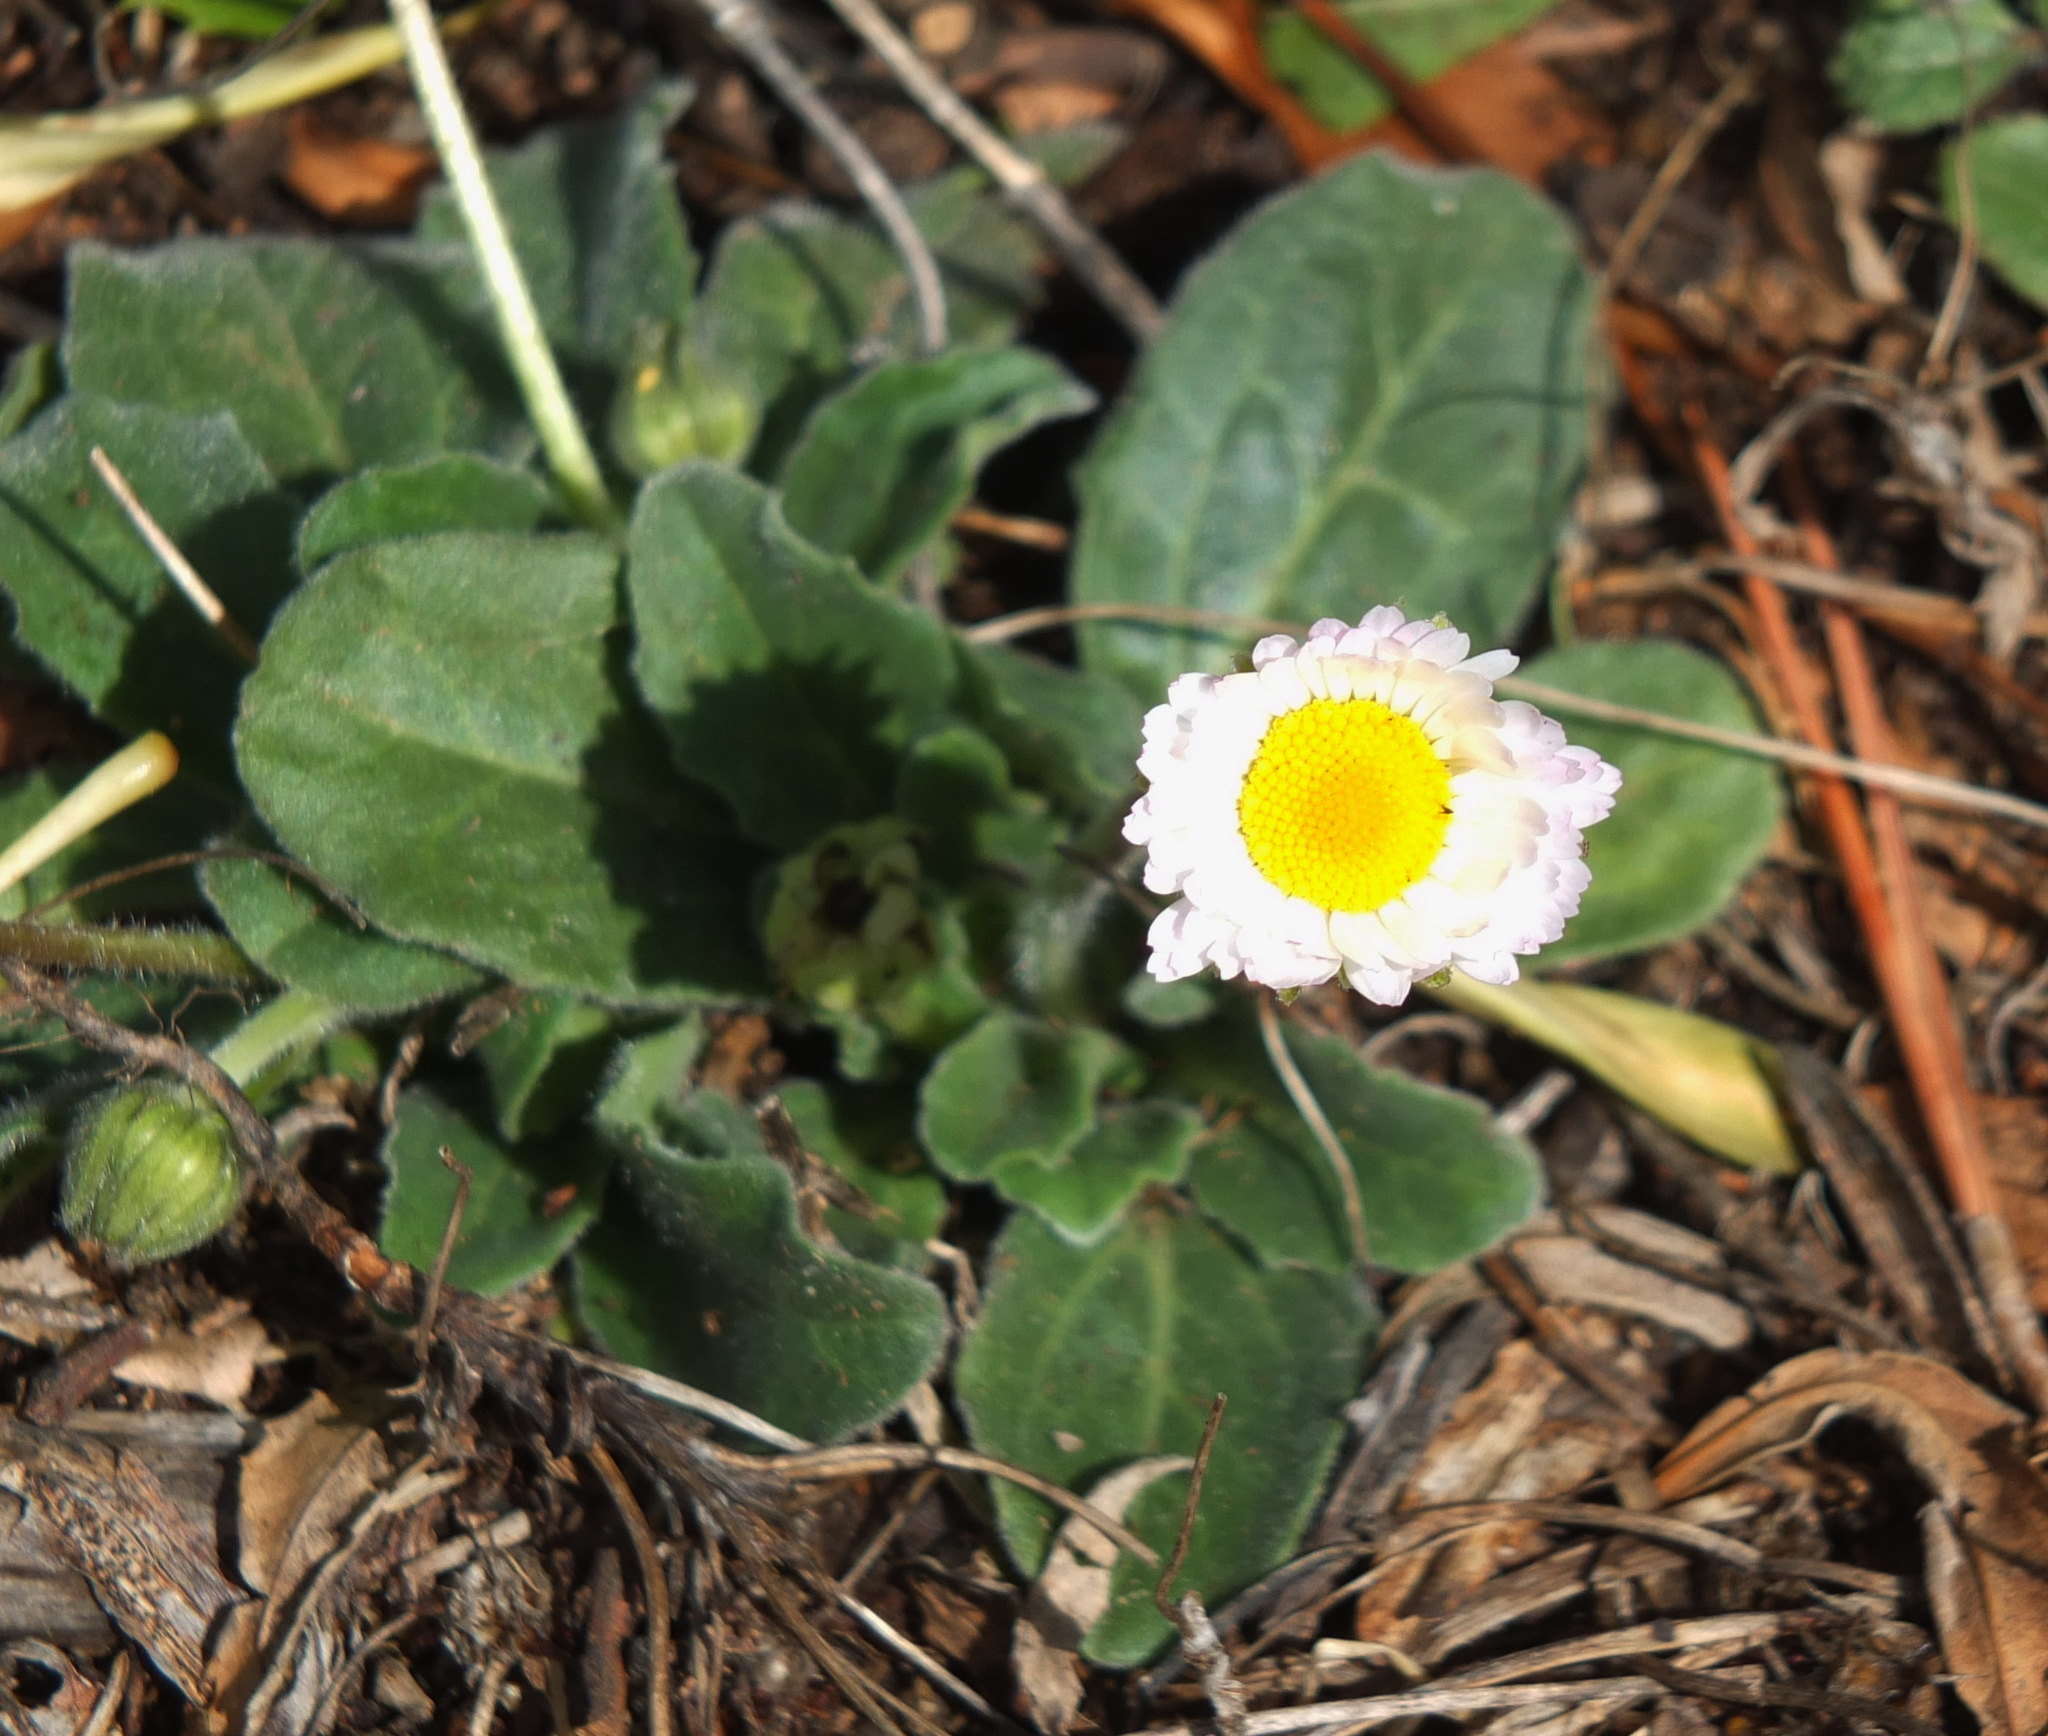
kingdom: Plantae
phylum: Tracheophyta
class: Magnoliopsida
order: Asterales
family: Asteraceae
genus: Bellis
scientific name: Bellis sylvestris
